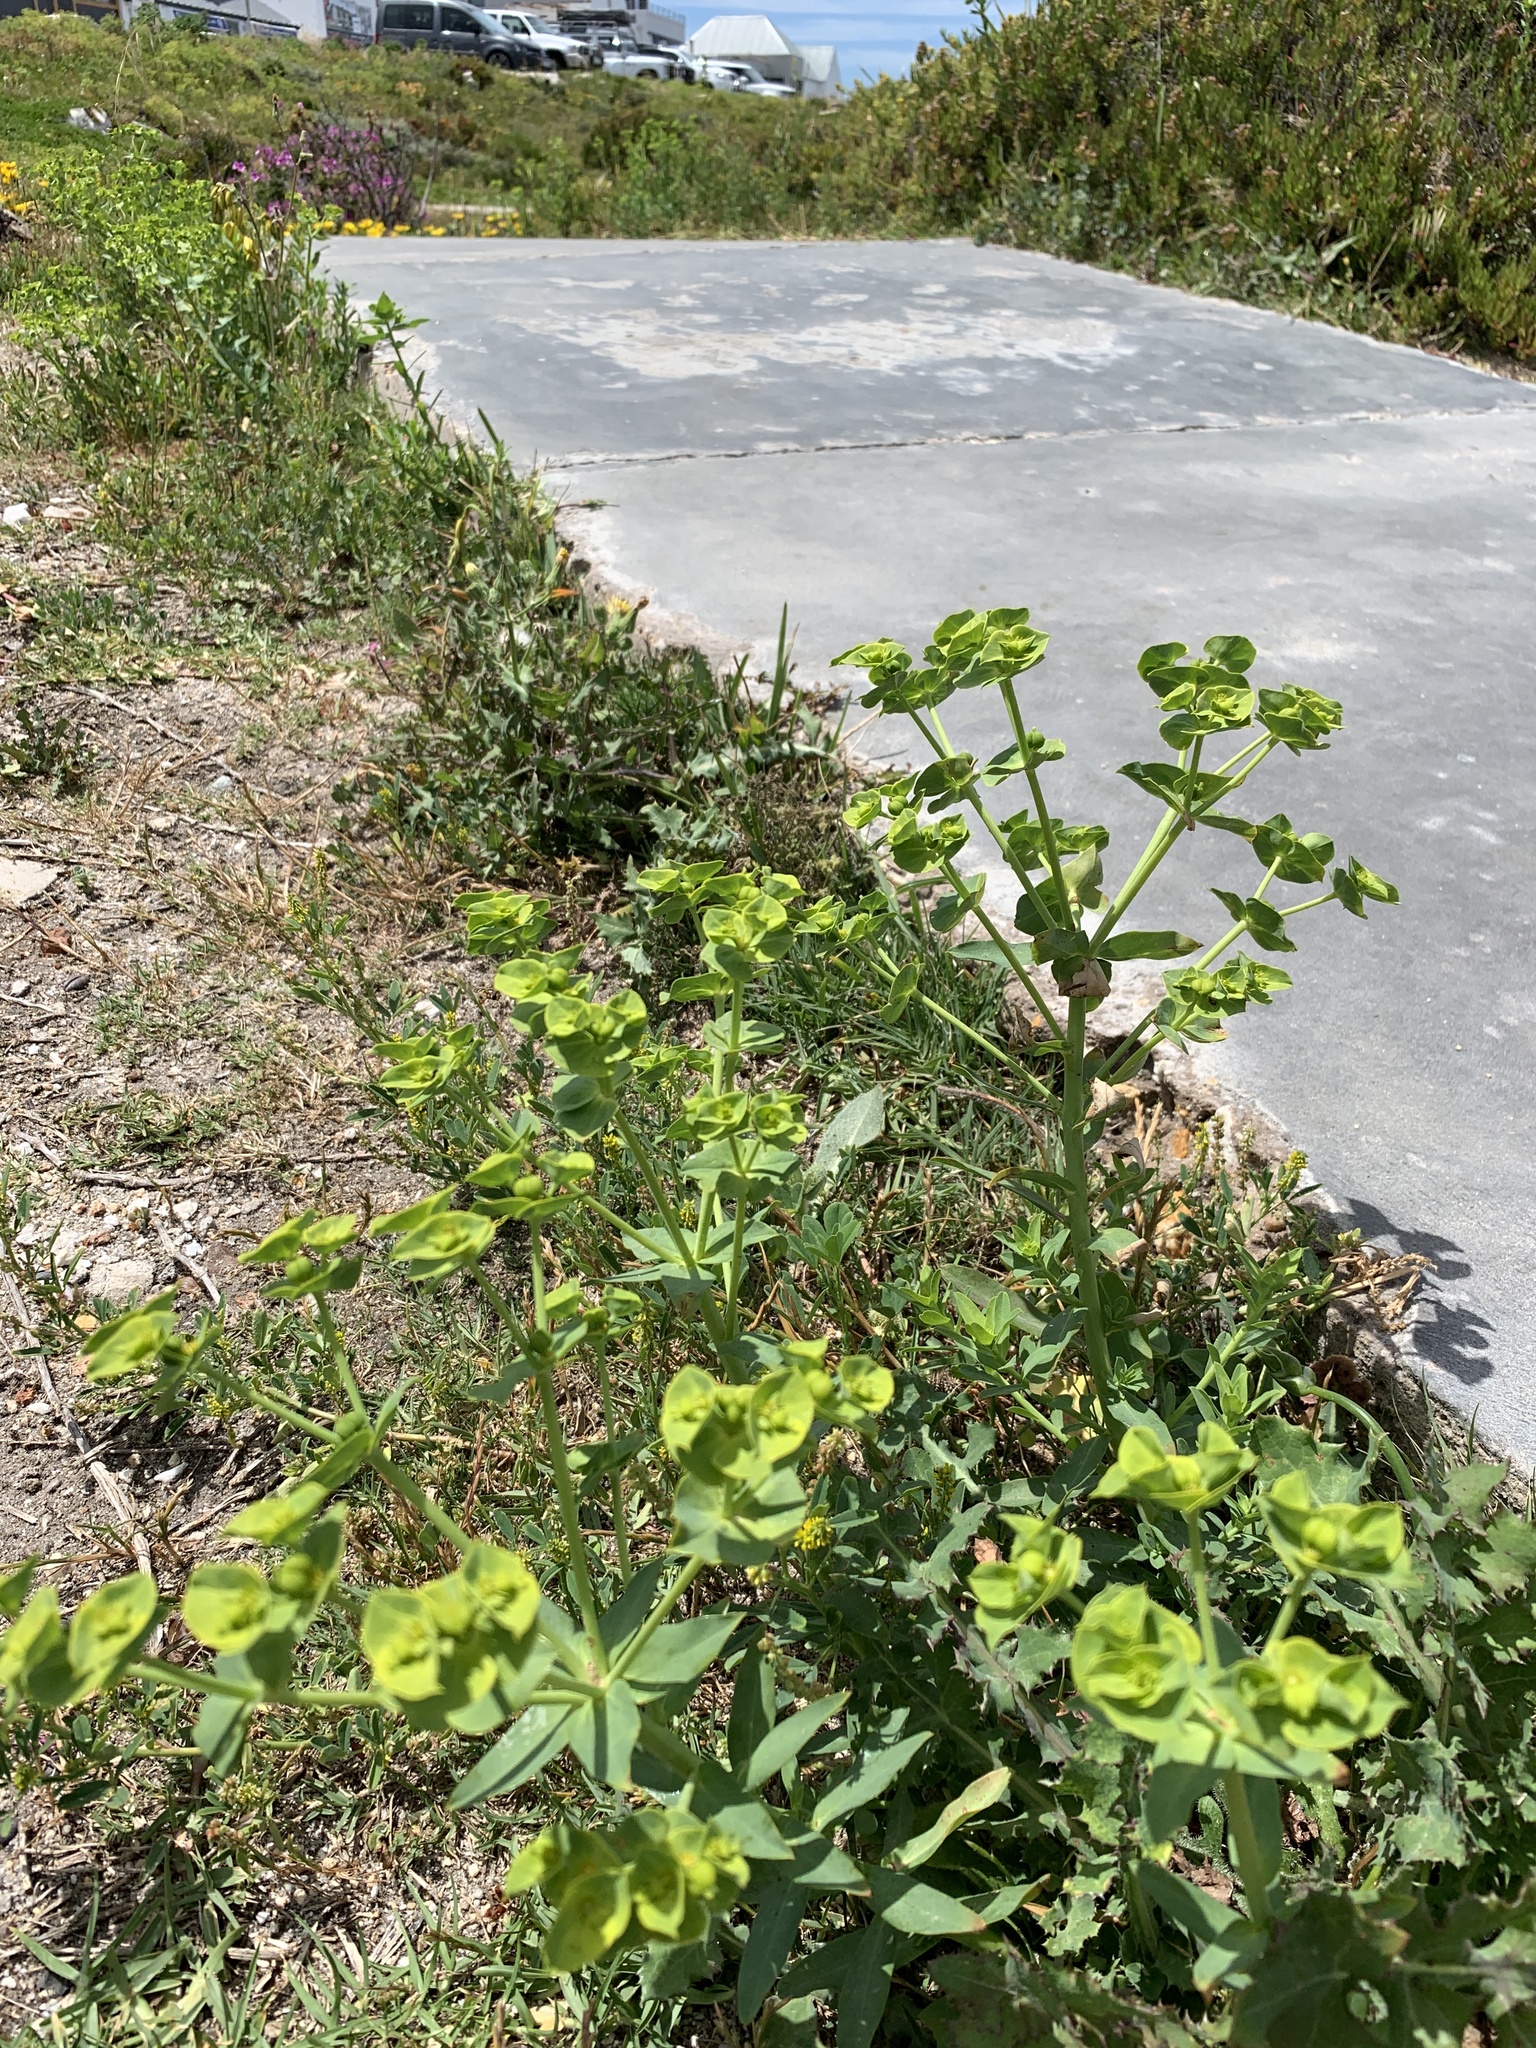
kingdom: Plantae
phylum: Tracheophyta
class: Magnoliopsida
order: Malpighiales
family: Euphorbiaceae
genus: Euphorbia
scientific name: Euphorbia terracina
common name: Geraldton carnation weed
